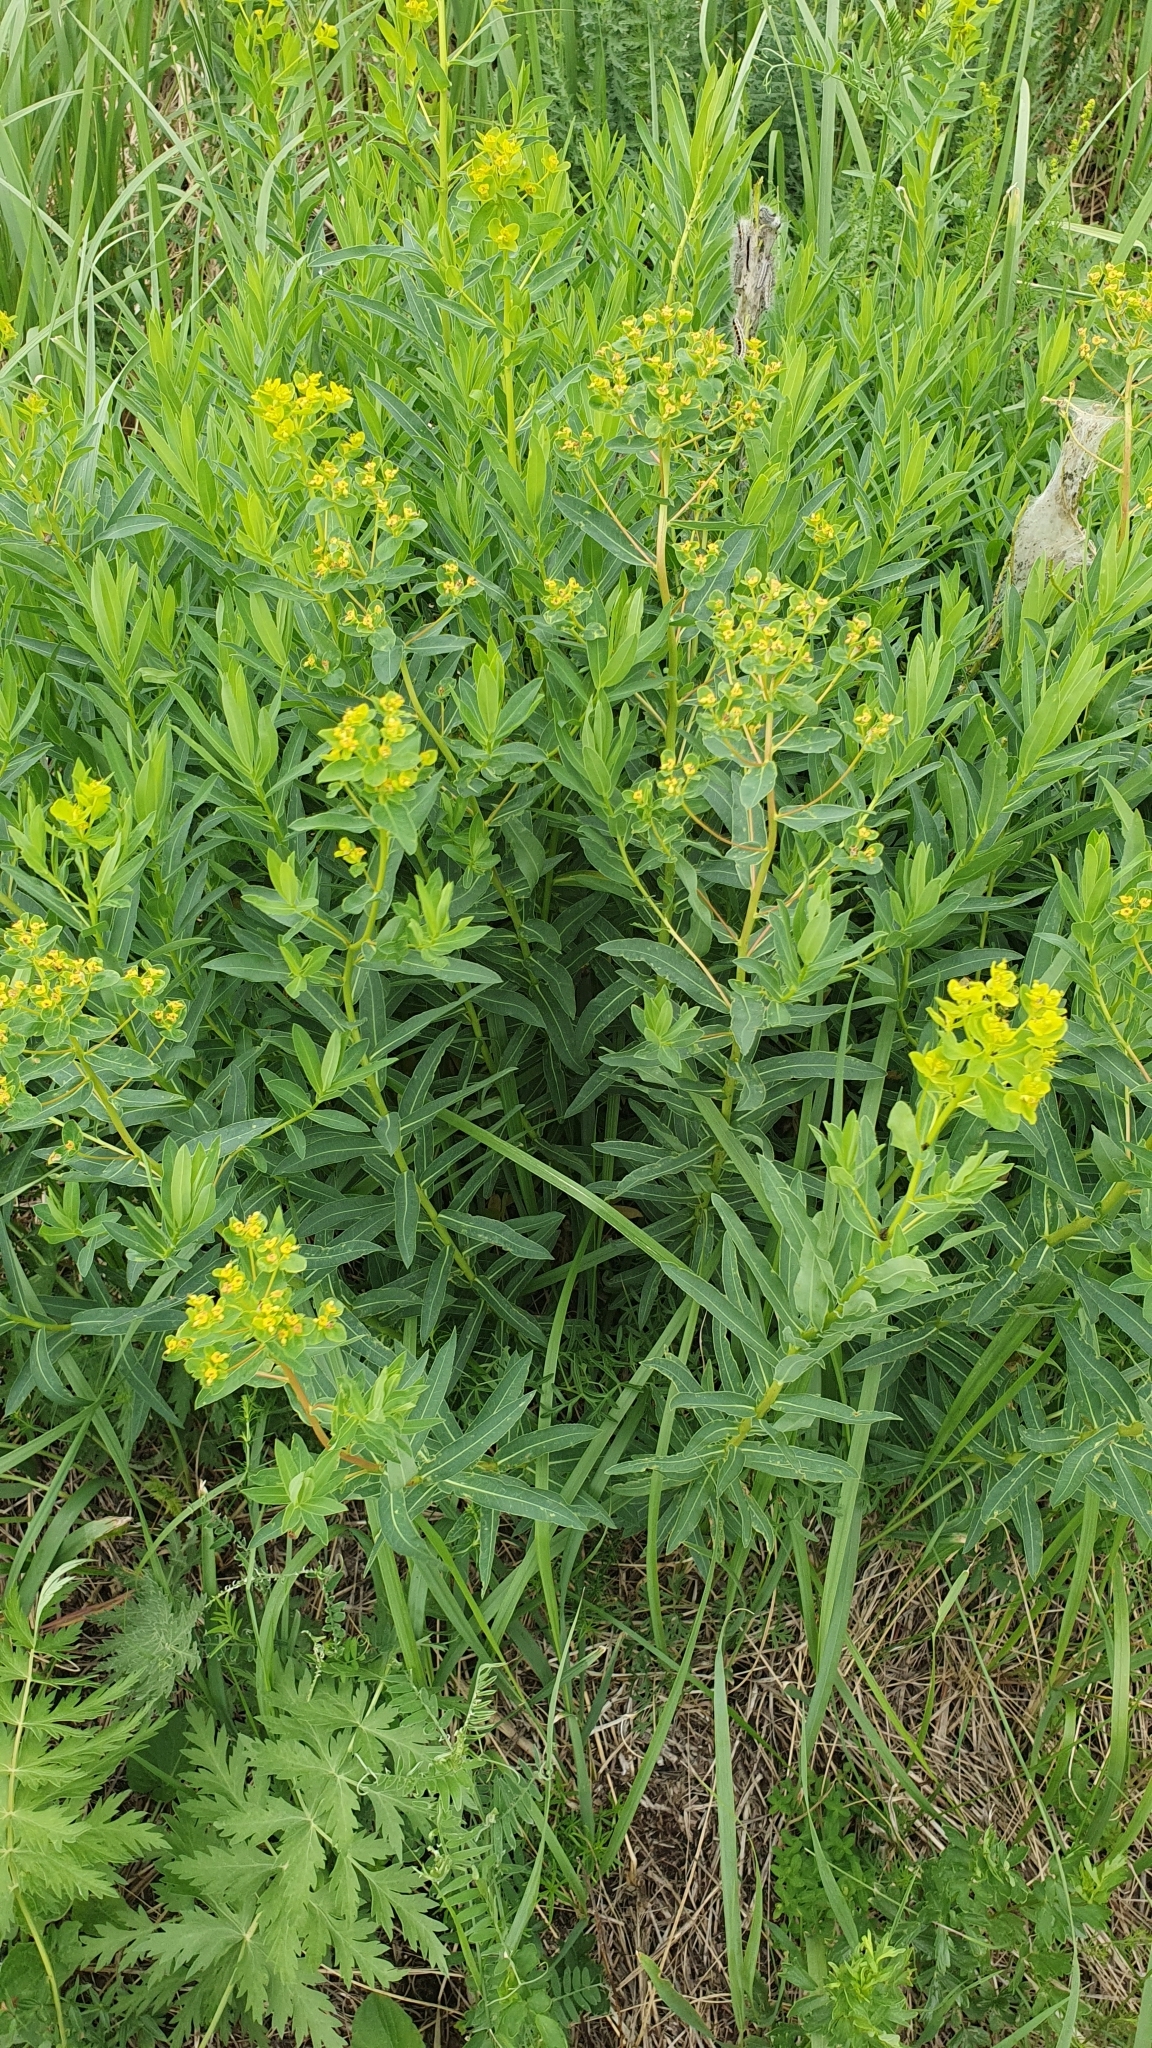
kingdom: Plantae
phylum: Tracheophyta
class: Magnoliopsida
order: Malpighiales
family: Euphorbiaceae
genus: Euphorbia
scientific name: Euphorbia semivillosa
